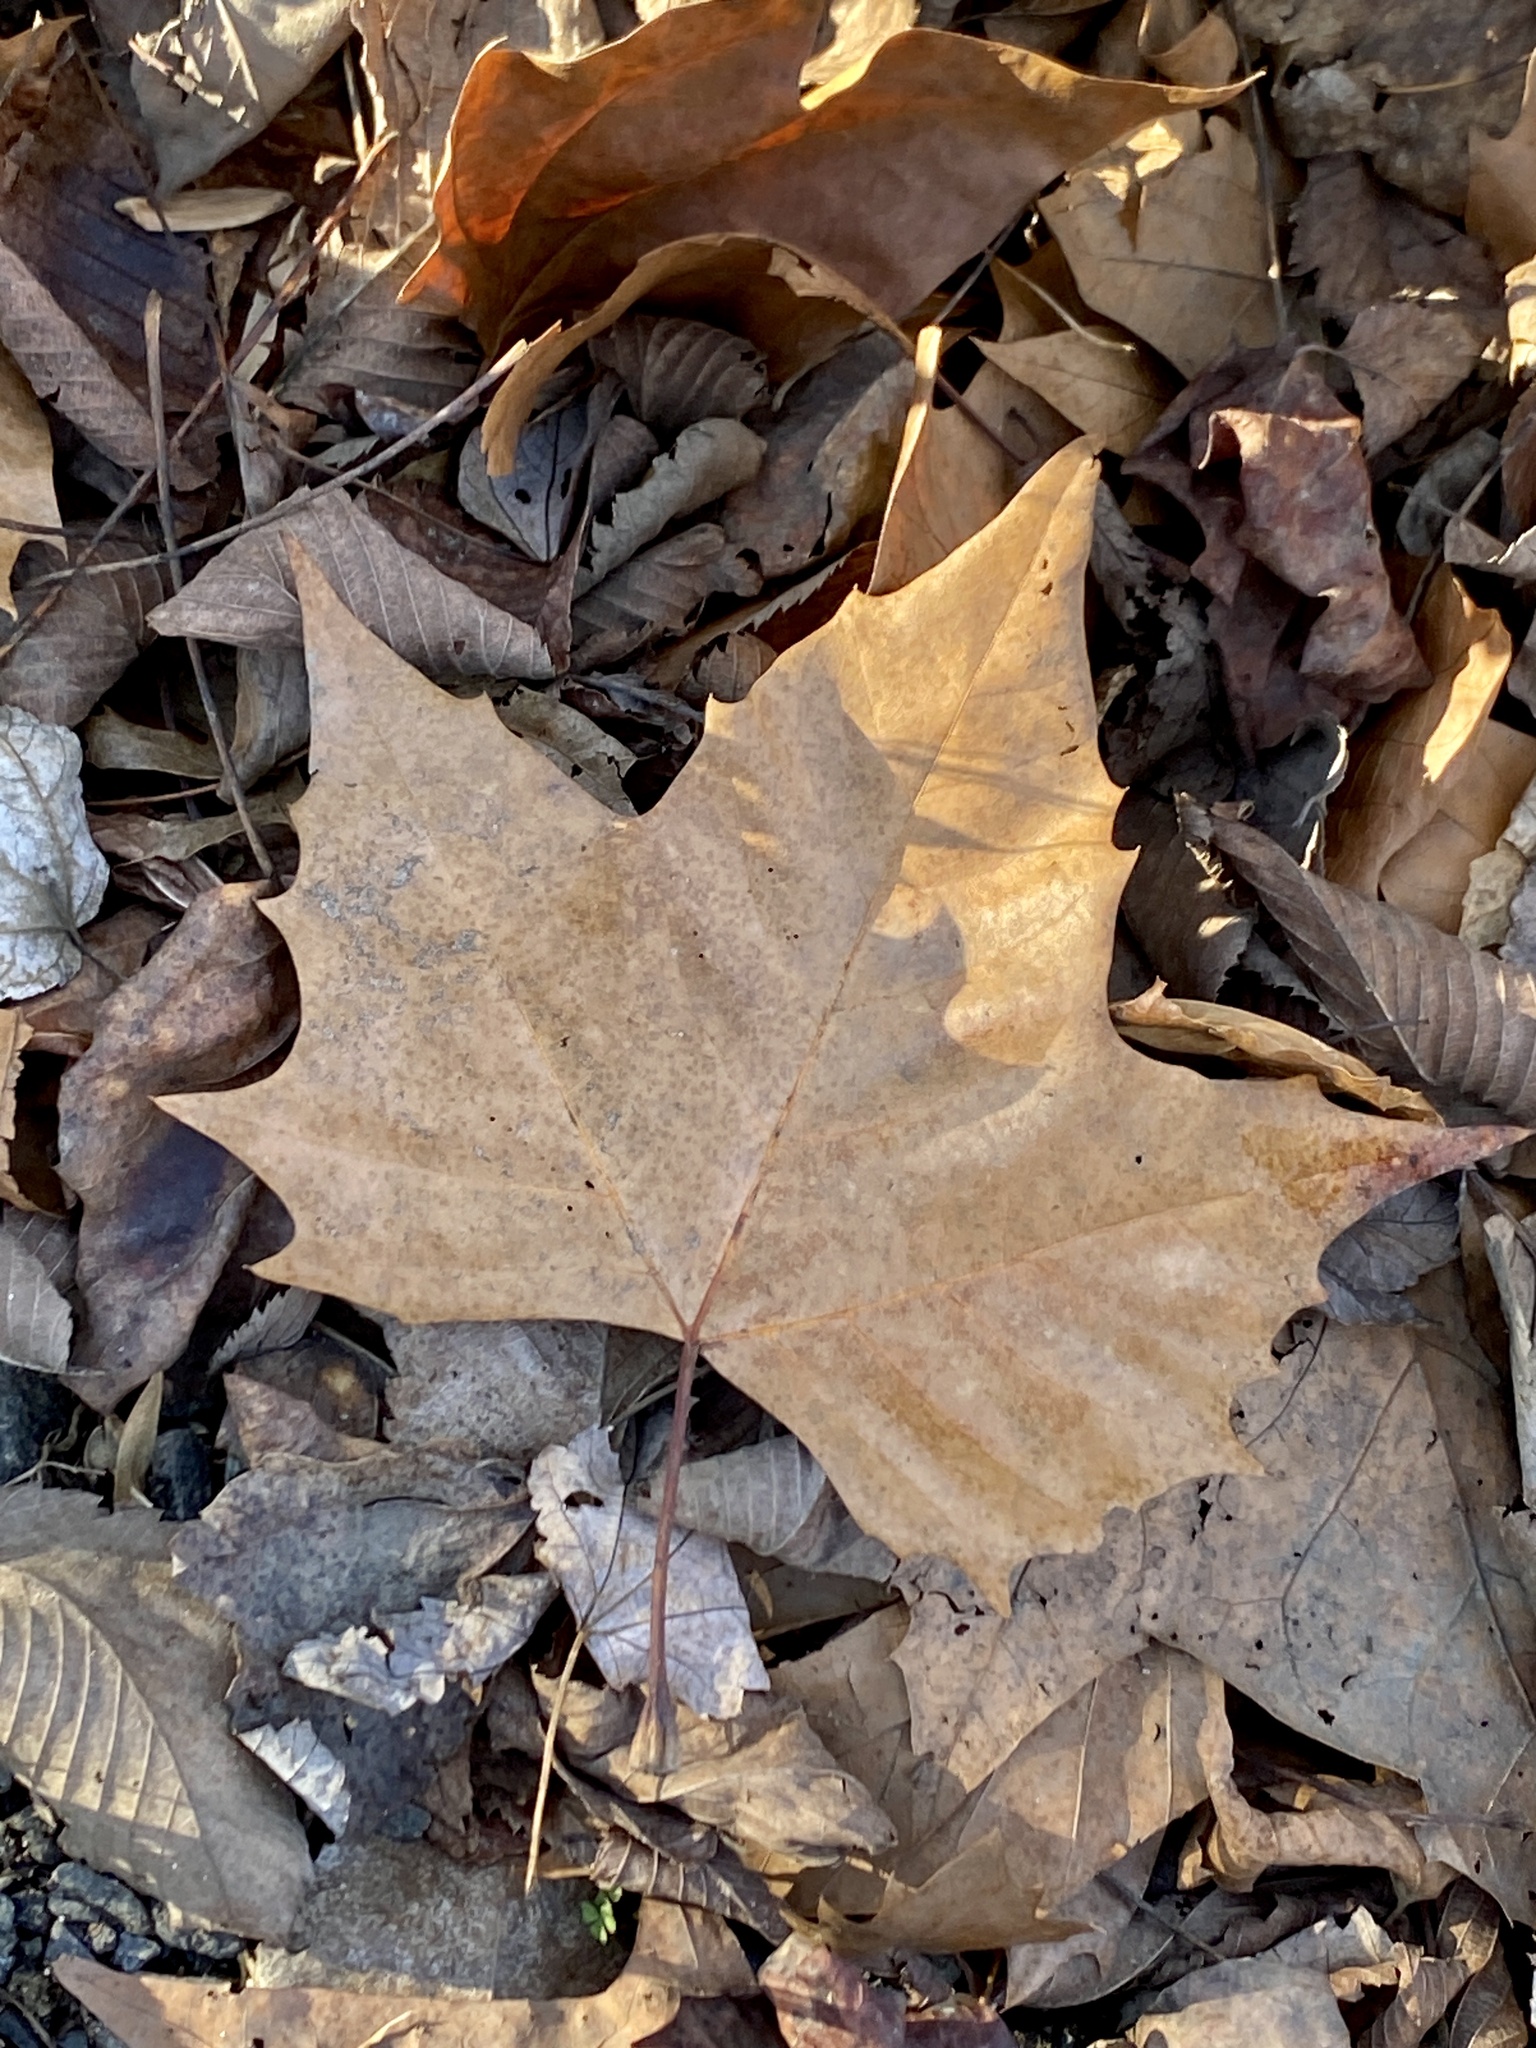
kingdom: Plantae
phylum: Tracheophyta
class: Magnoliopsida
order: Proteales
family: Platanaceae
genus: Platanus
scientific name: Platanus occidentalis
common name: American sycamore
